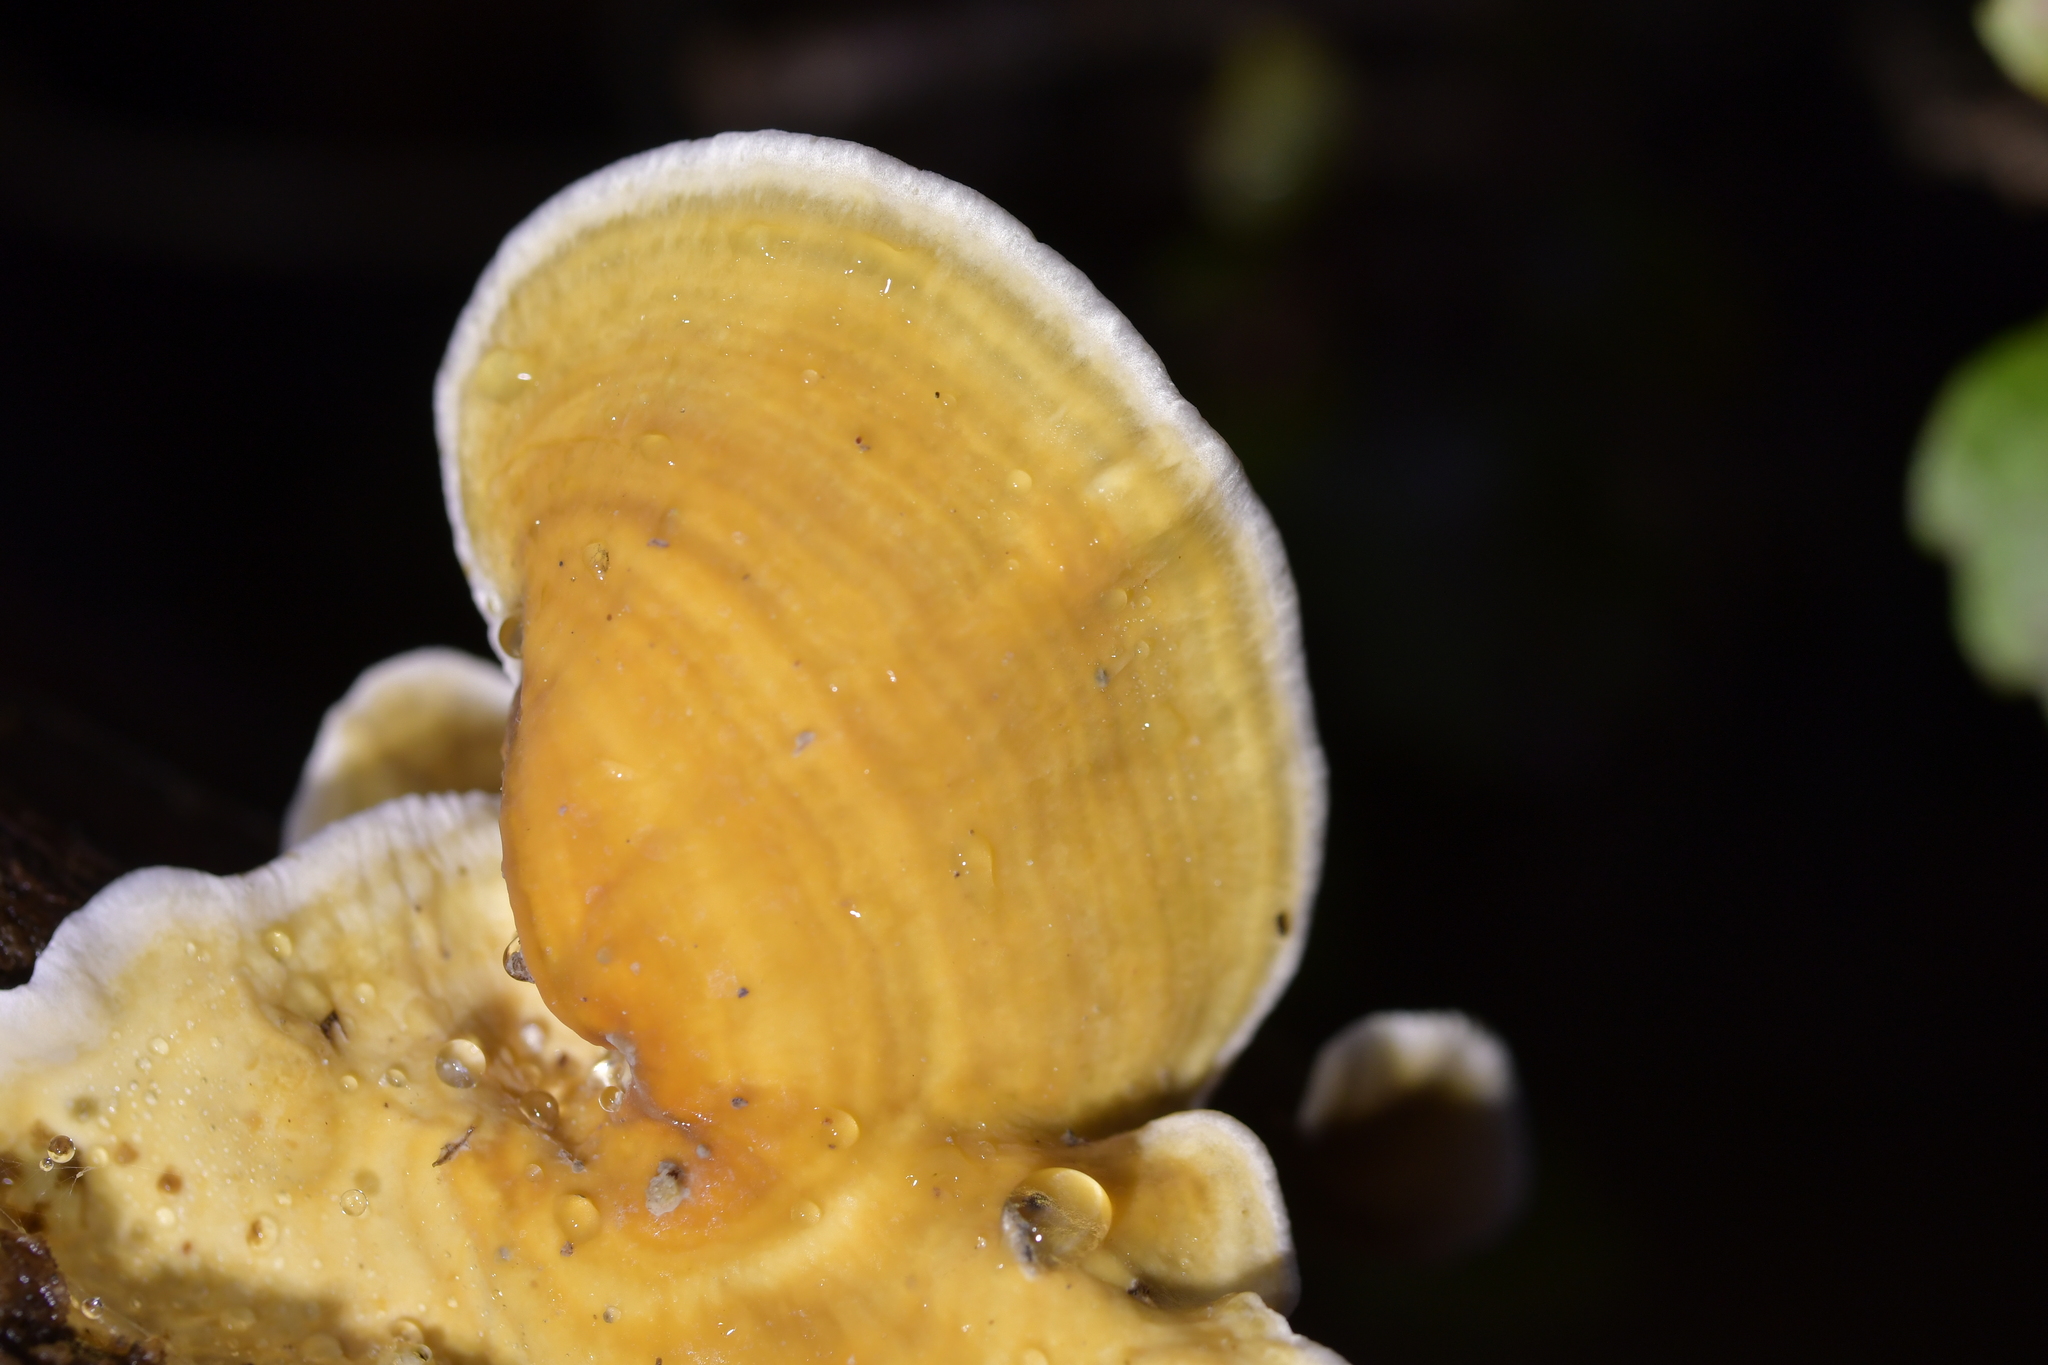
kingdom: Fungi
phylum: Basidiomycota
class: Agaricomycetes
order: Russulales
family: Stereaceae
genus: Stereum
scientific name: Stereum versicolor
